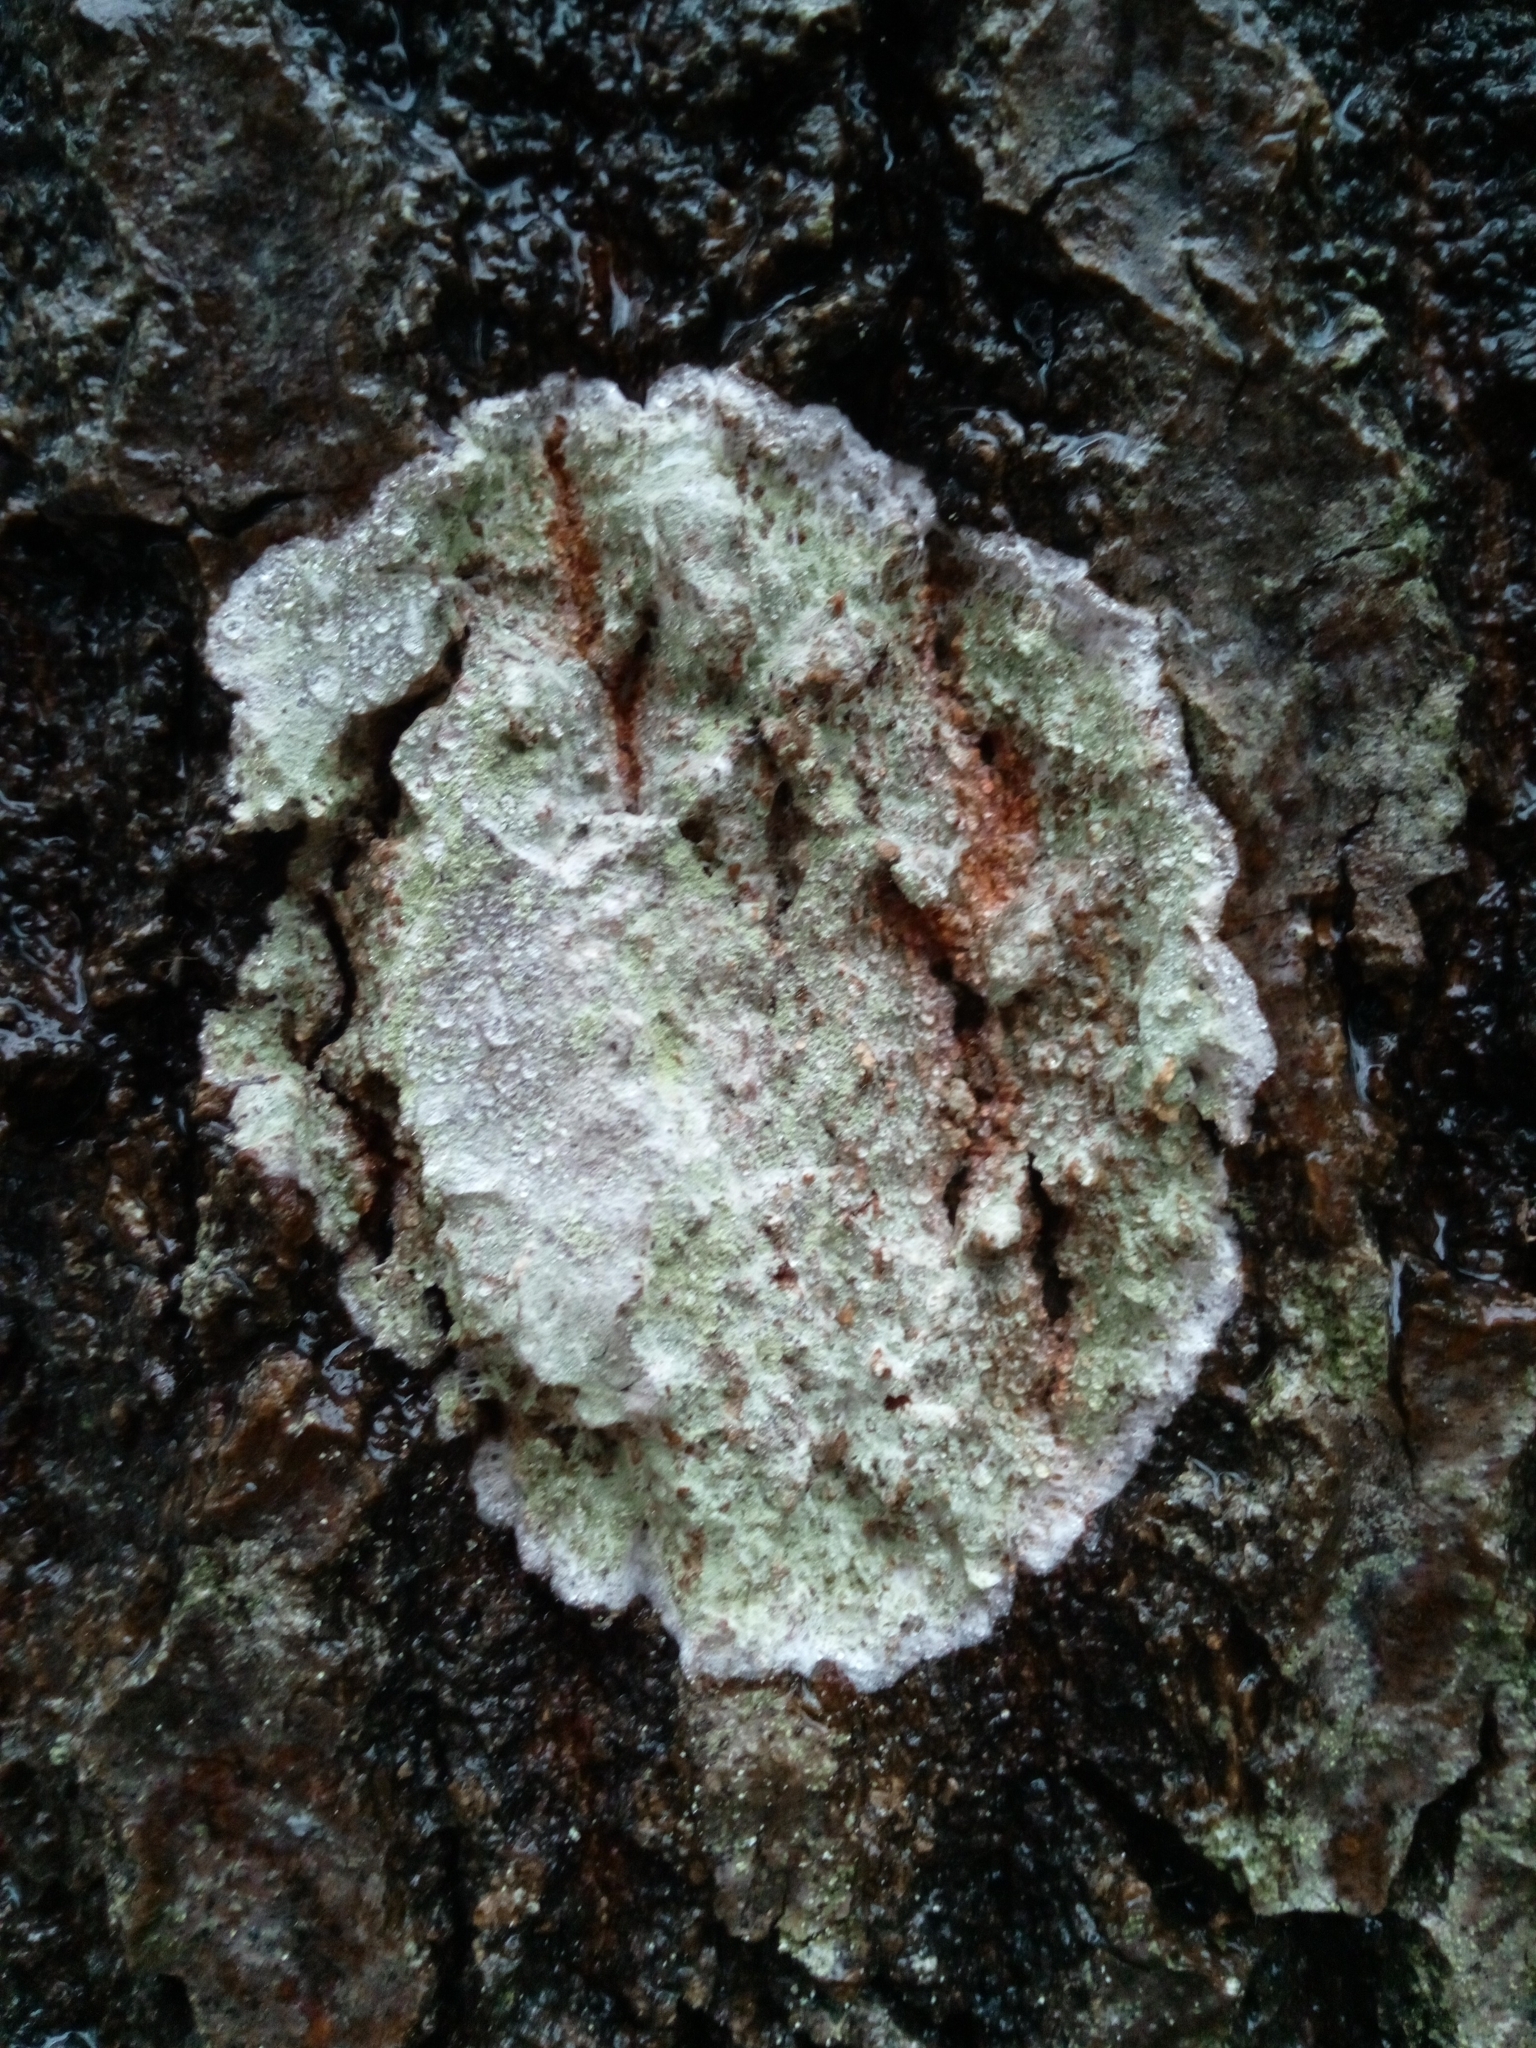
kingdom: Fungi
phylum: Ascomycota
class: Lecanoromycetes
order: Ostropales
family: Phlyctidaceae
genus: Phlyctis
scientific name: Phlyctis argena
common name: Whitewash lichen
